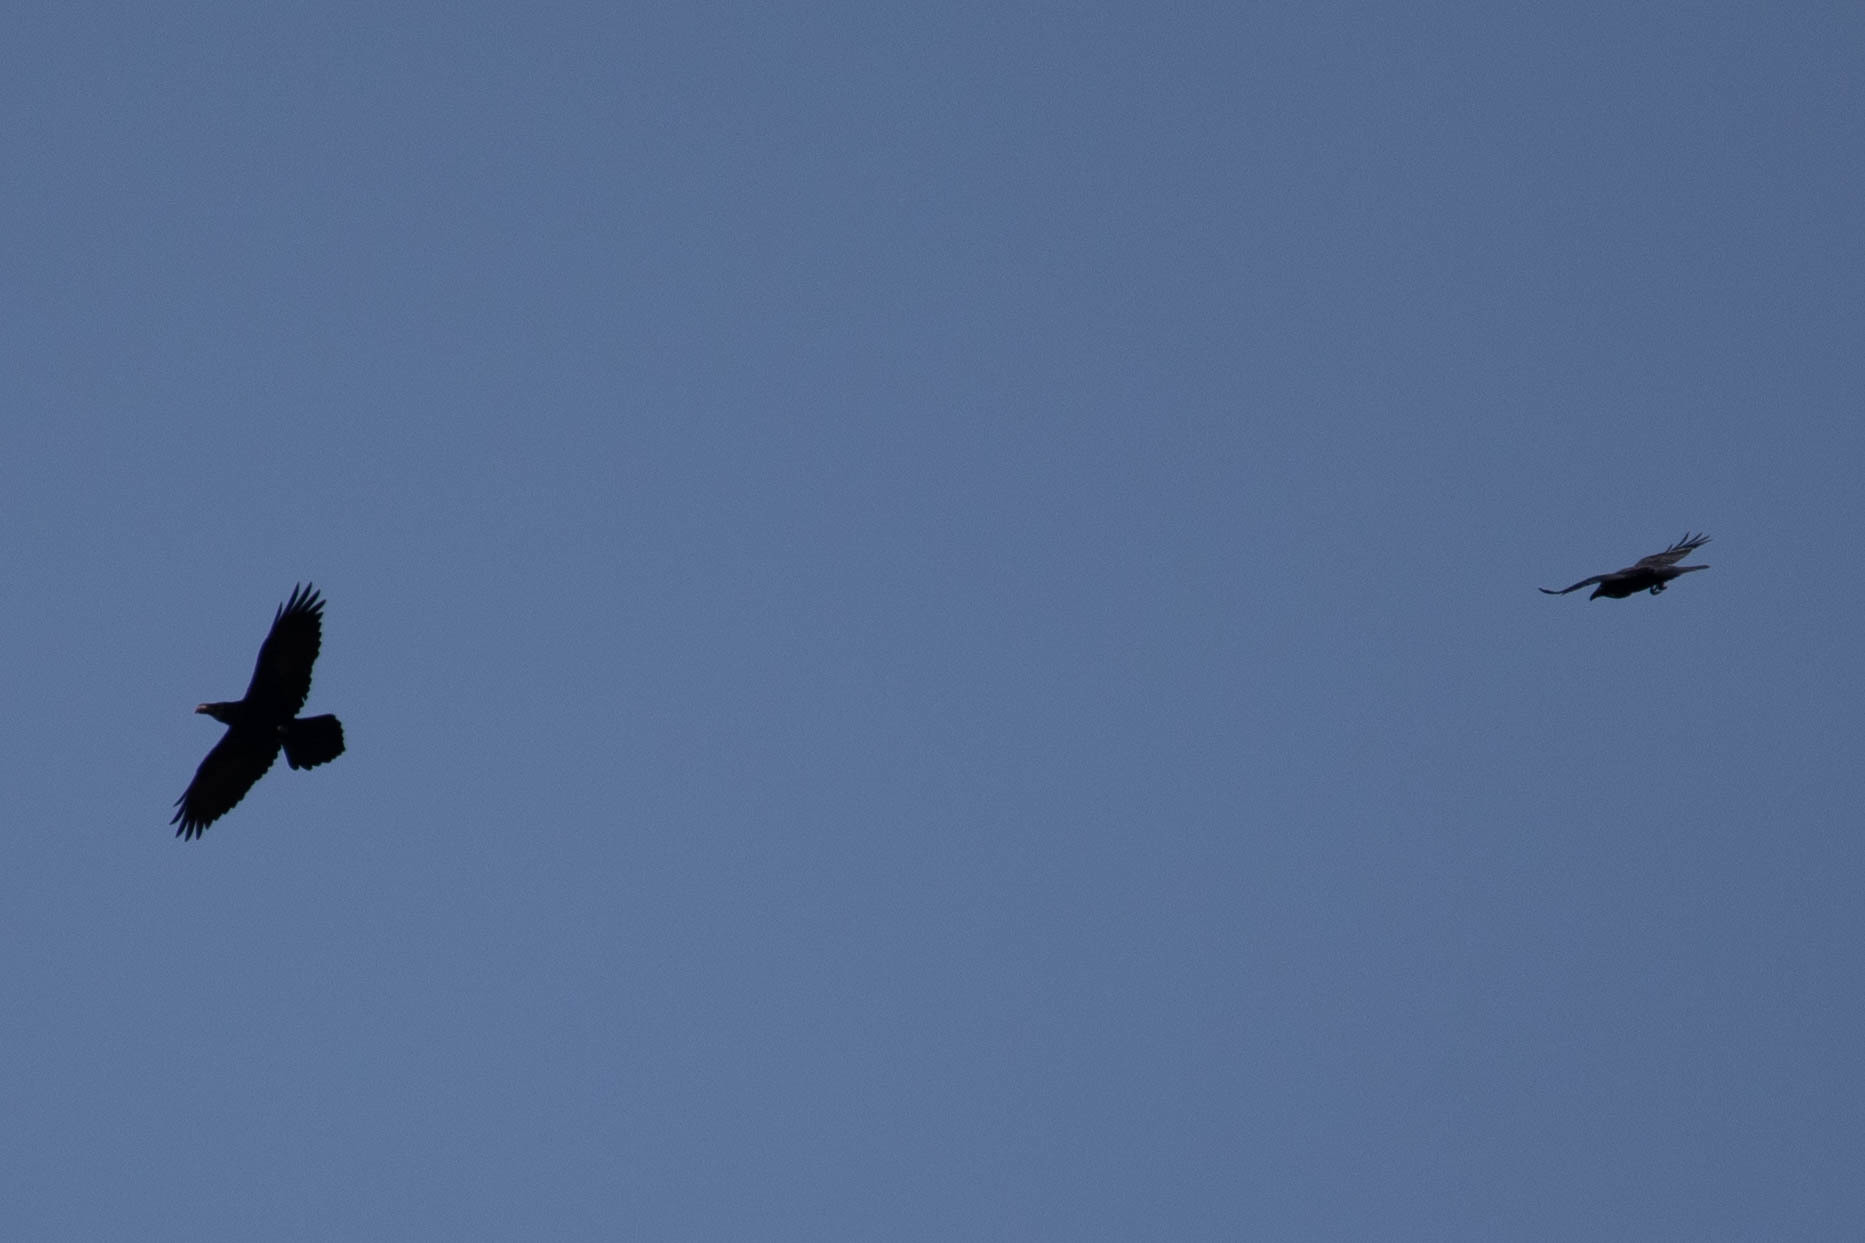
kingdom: Animalia
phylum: Chordata
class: Aves
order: Passeriformes
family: Corvidae
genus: Corvus
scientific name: Corvus corax
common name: Common raven
